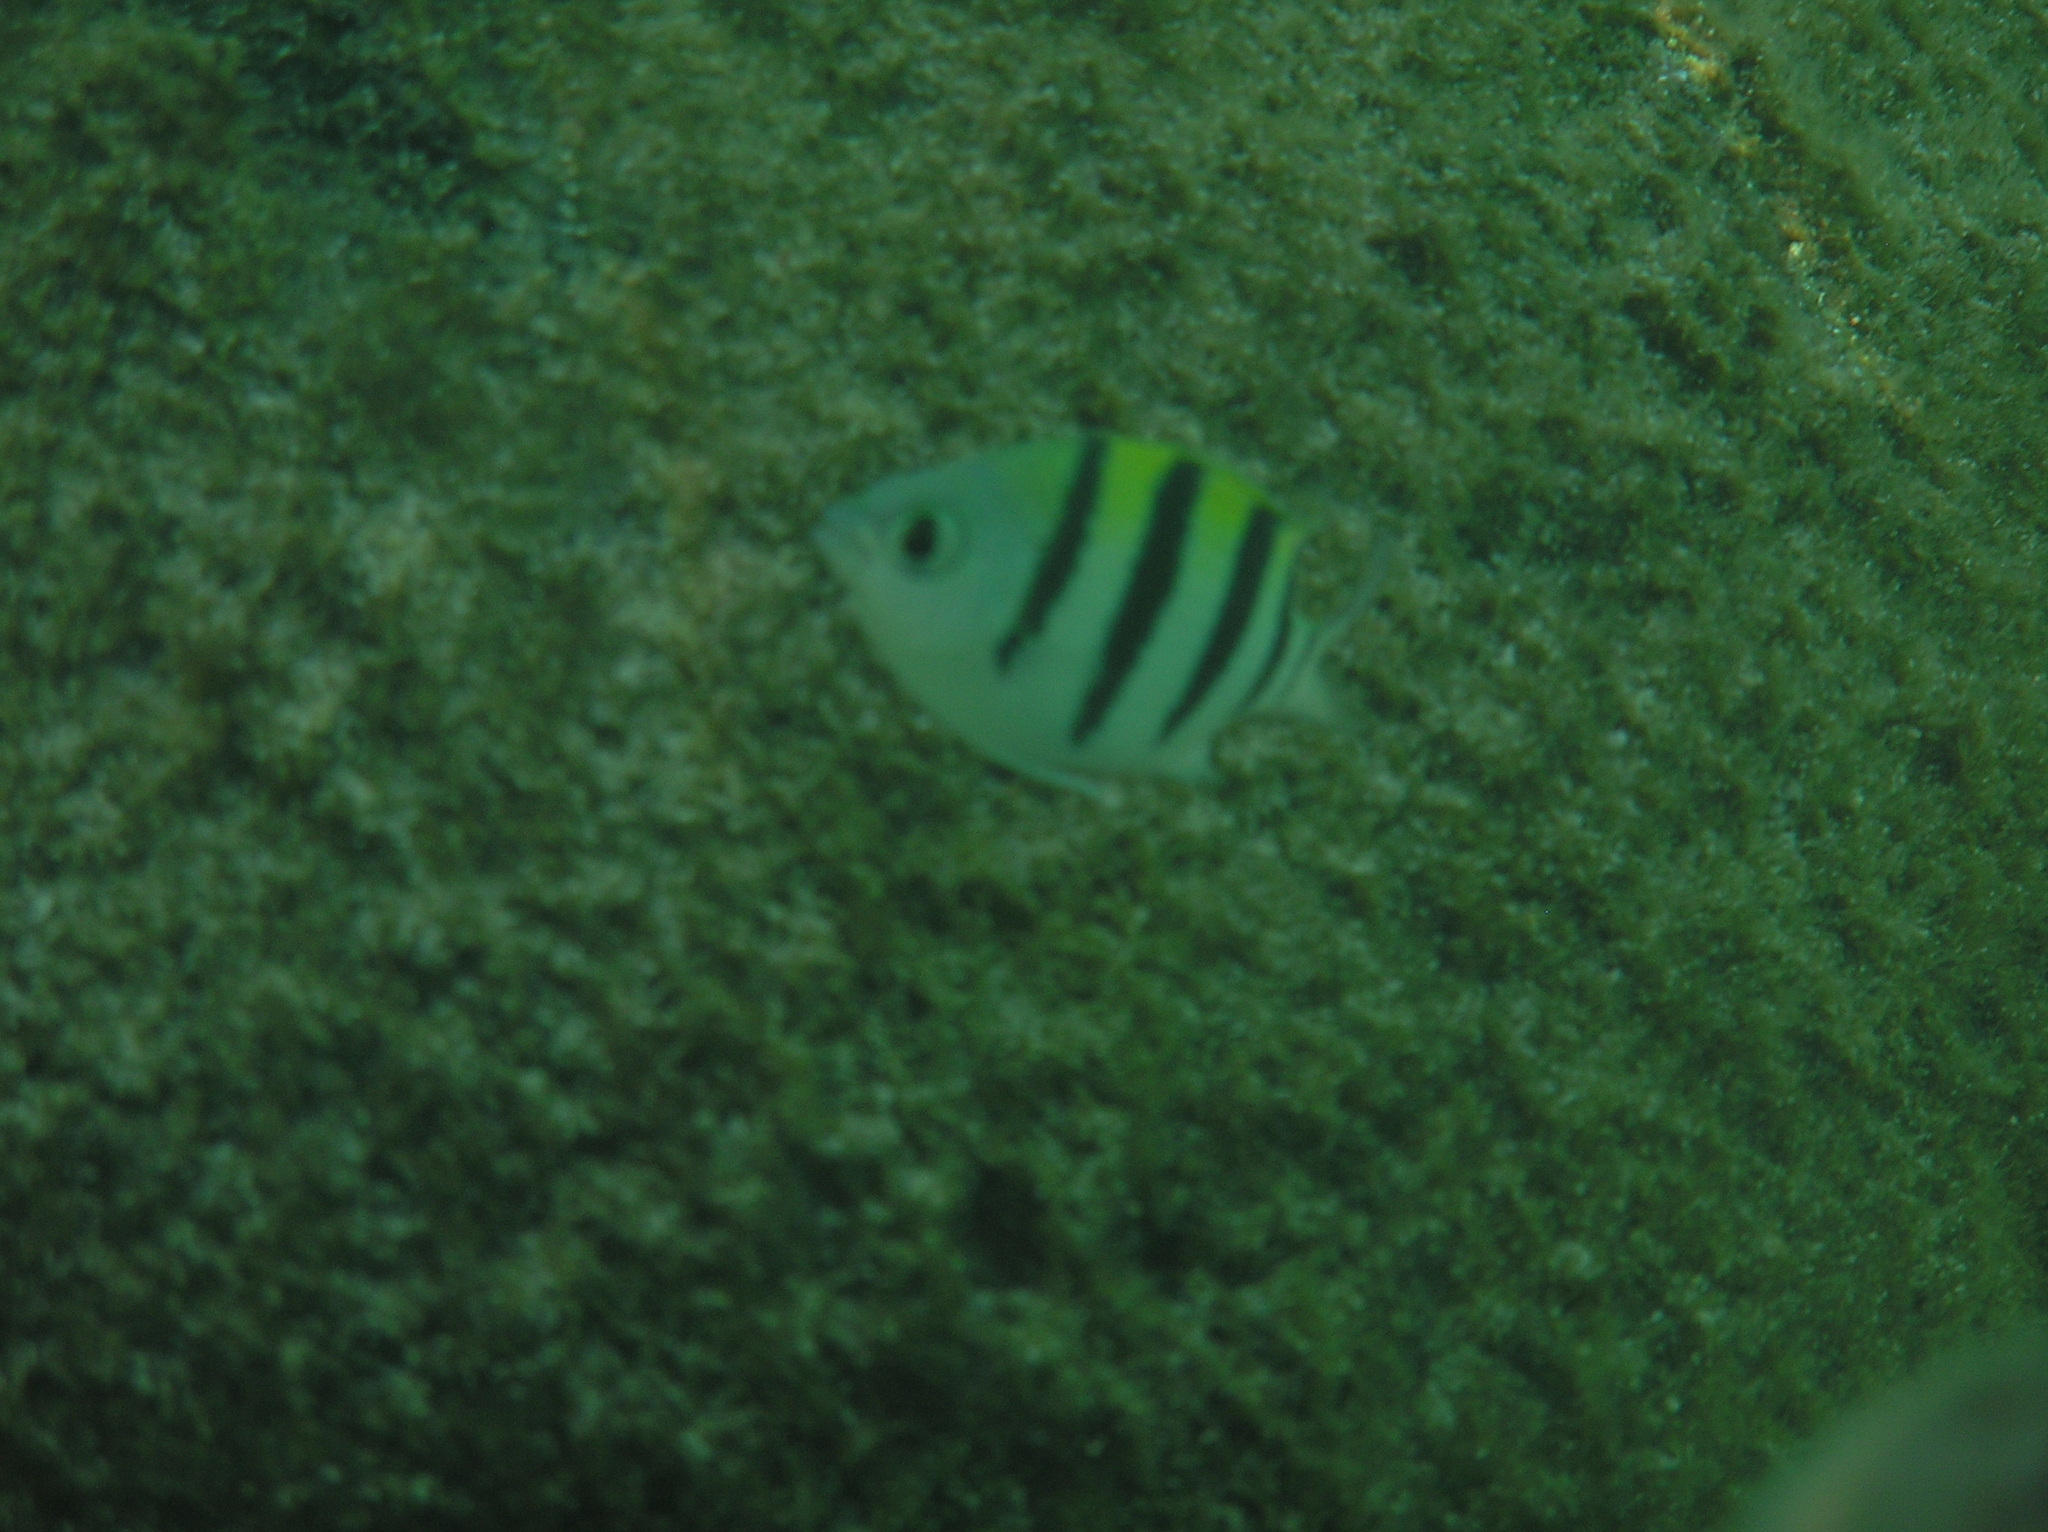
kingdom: Animalia
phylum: Chordata
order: Perciformes
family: Pomacentridae
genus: Abudefduf
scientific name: Abudefduf vaigiensis
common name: Indo-pacific sergeant
